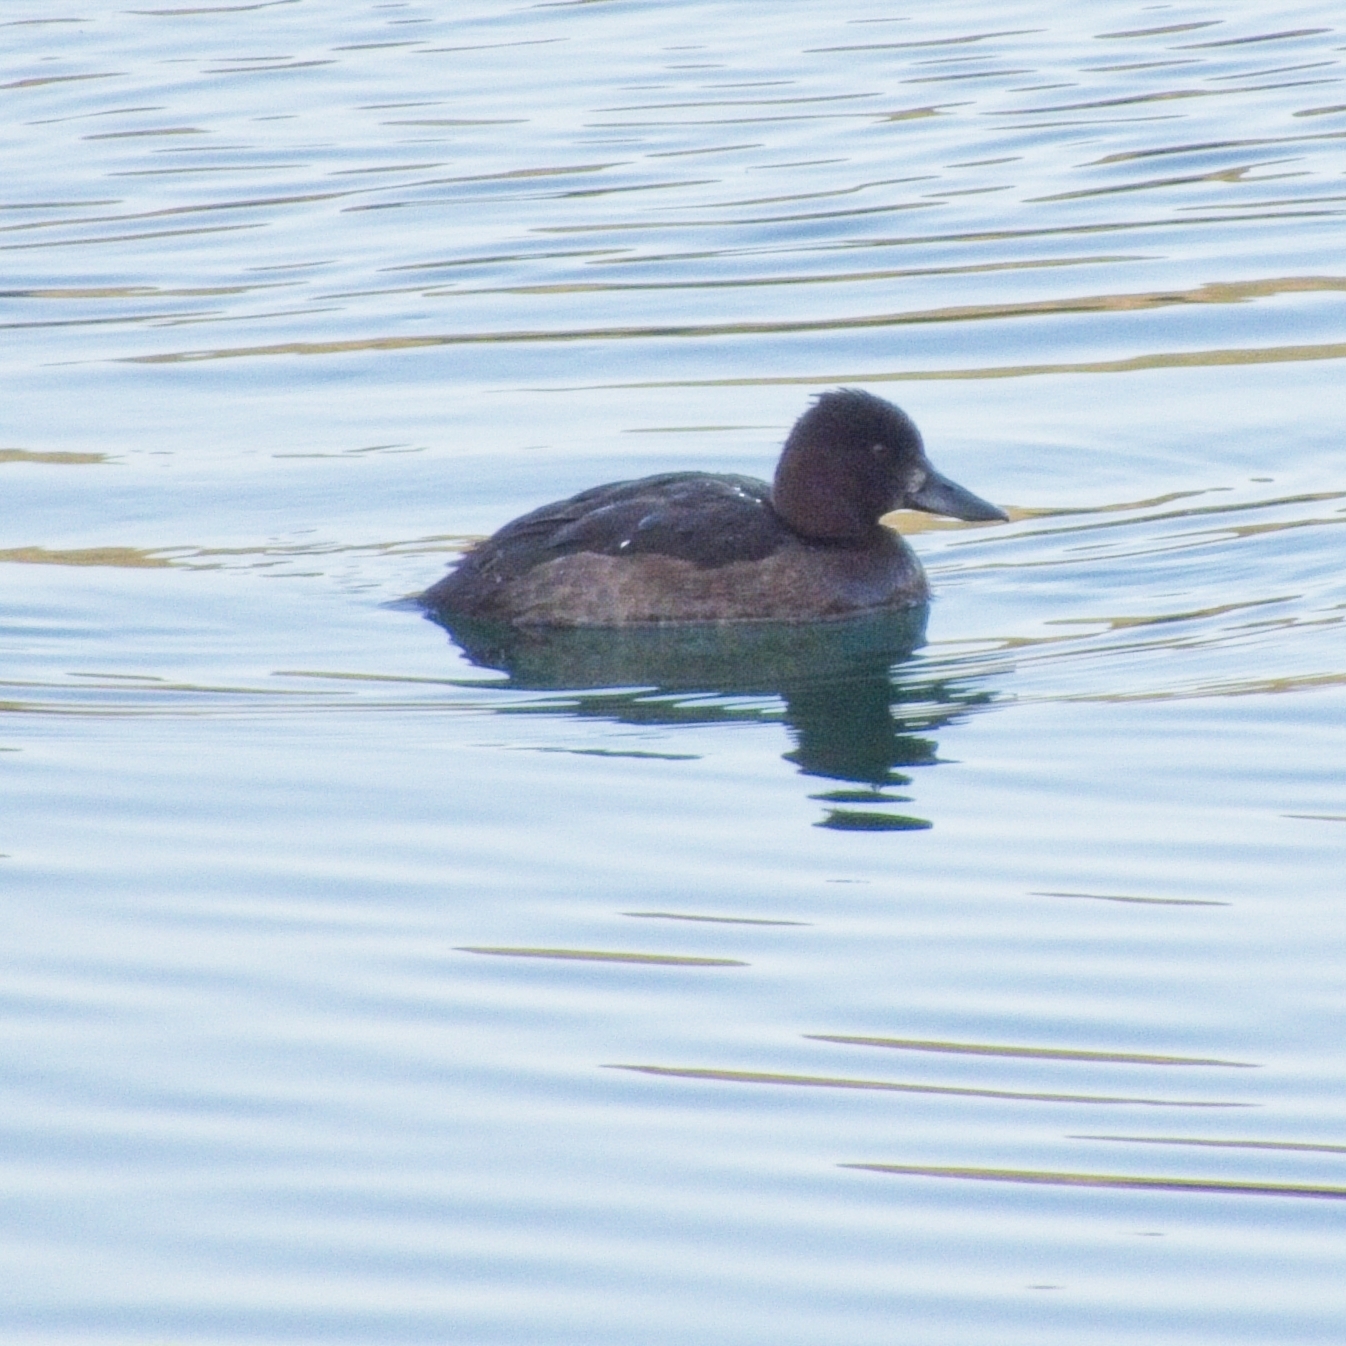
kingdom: Animalia
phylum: Chordata
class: Aves
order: Anseriformes
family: Anatidae
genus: Aythya
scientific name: Aythya fuligula
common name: Tufted duck
